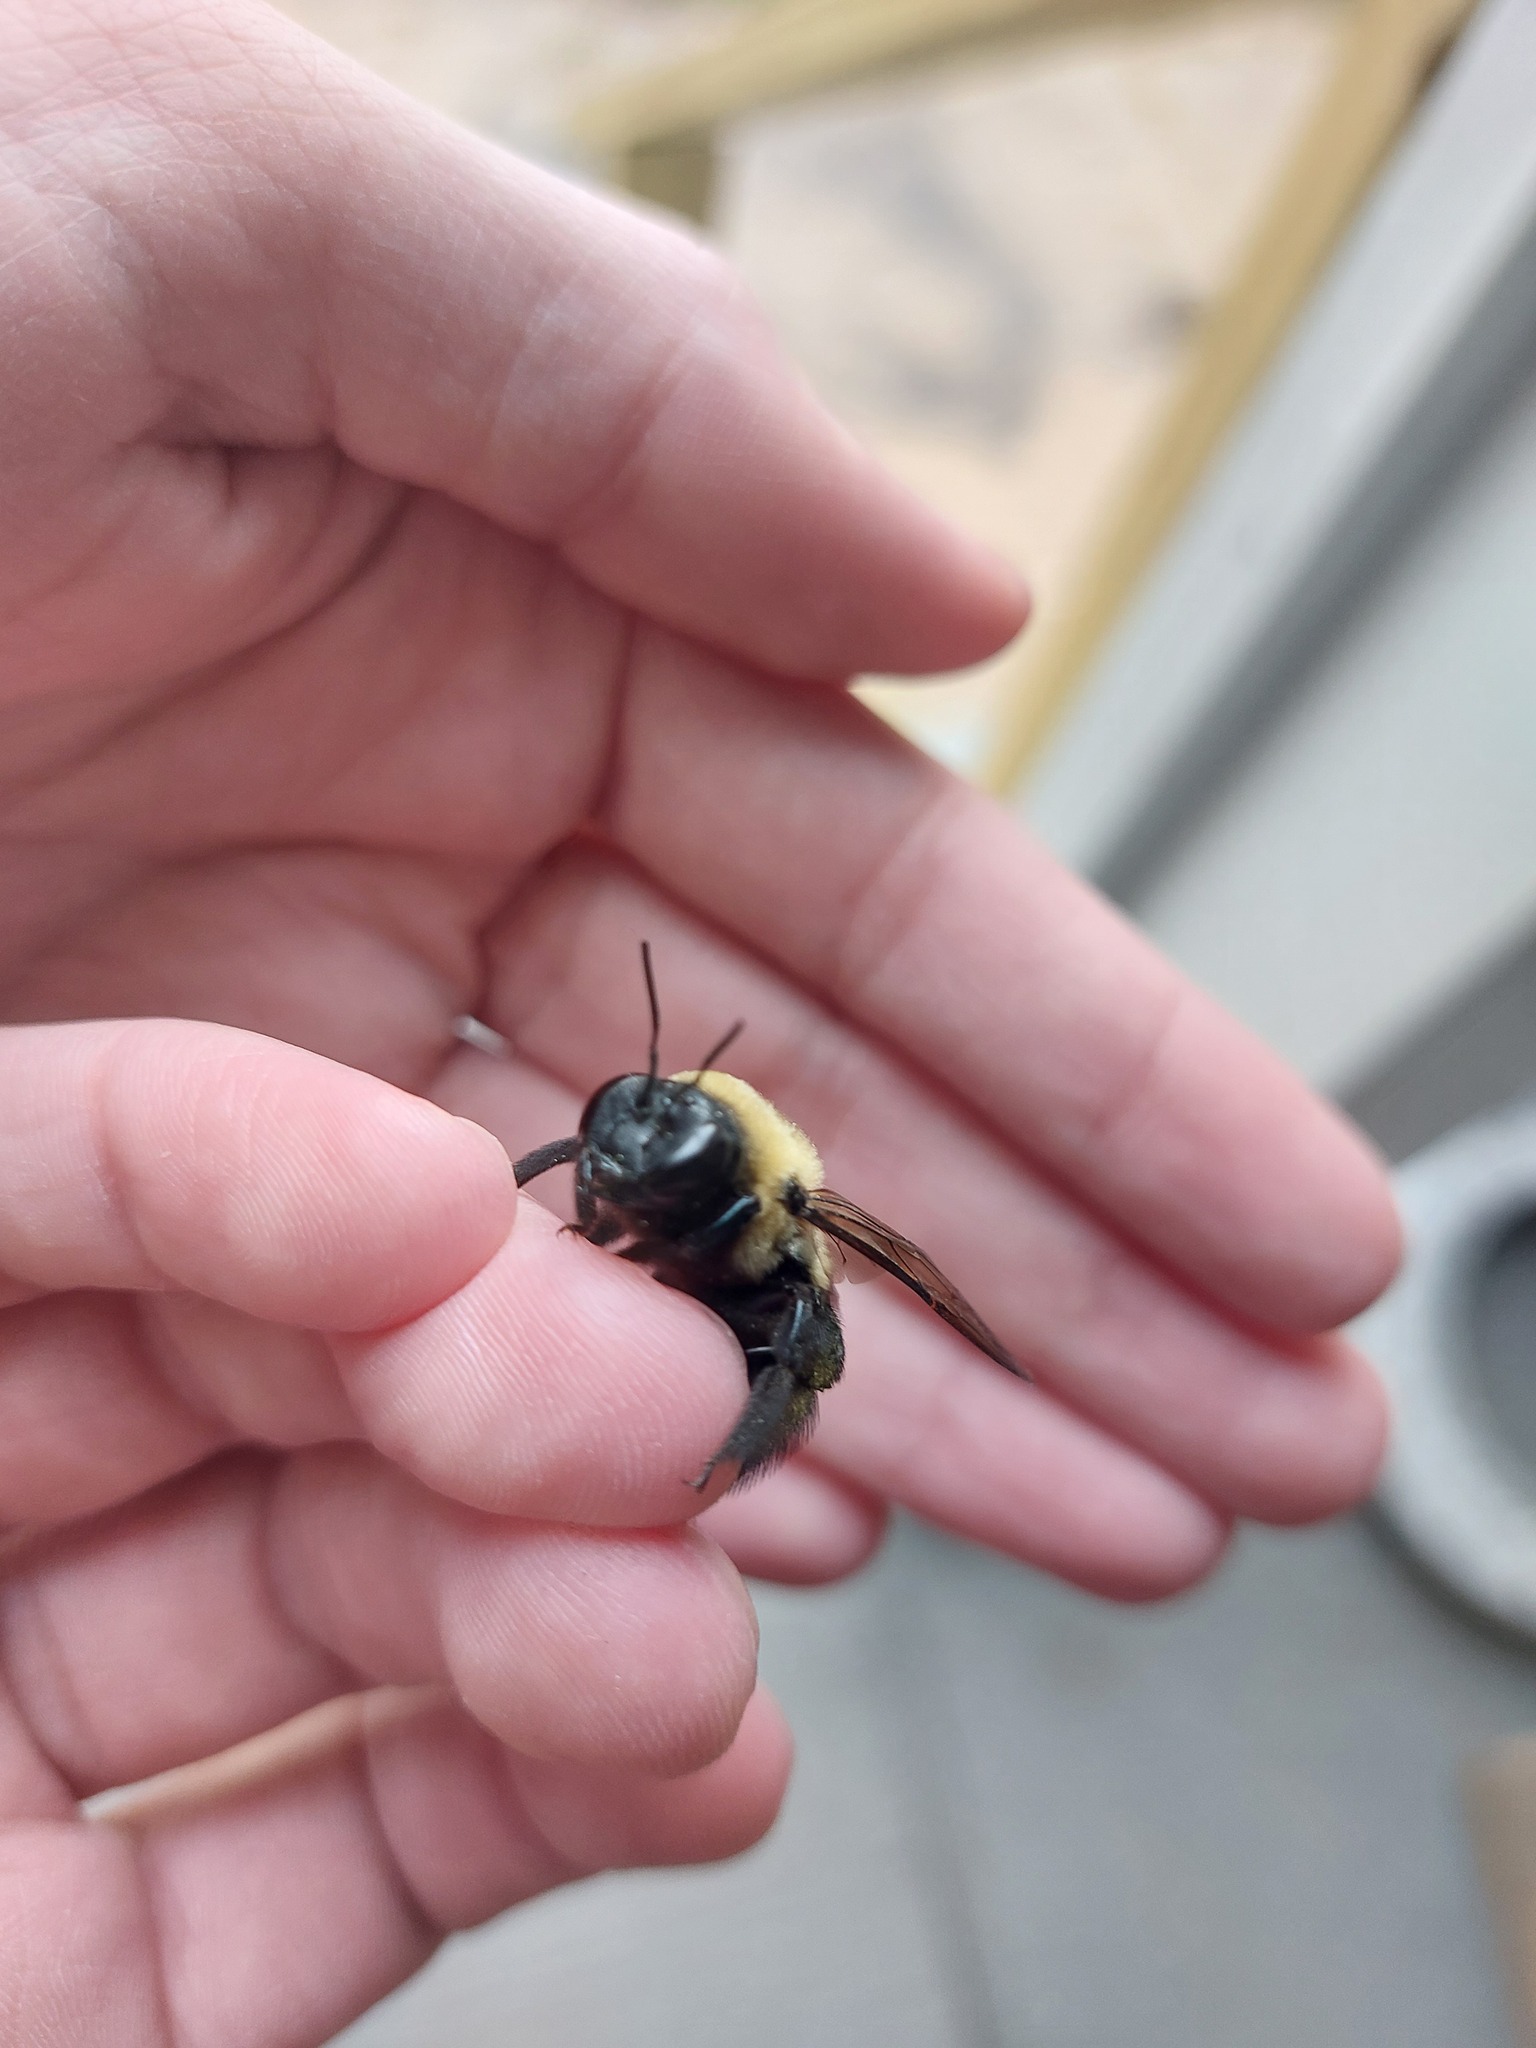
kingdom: Animalia
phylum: Arthropoda
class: Insecta
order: Hymenoptera
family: Apidae
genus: Xylocopa
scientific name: Xylocopa virginica
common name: Carpenter bee
